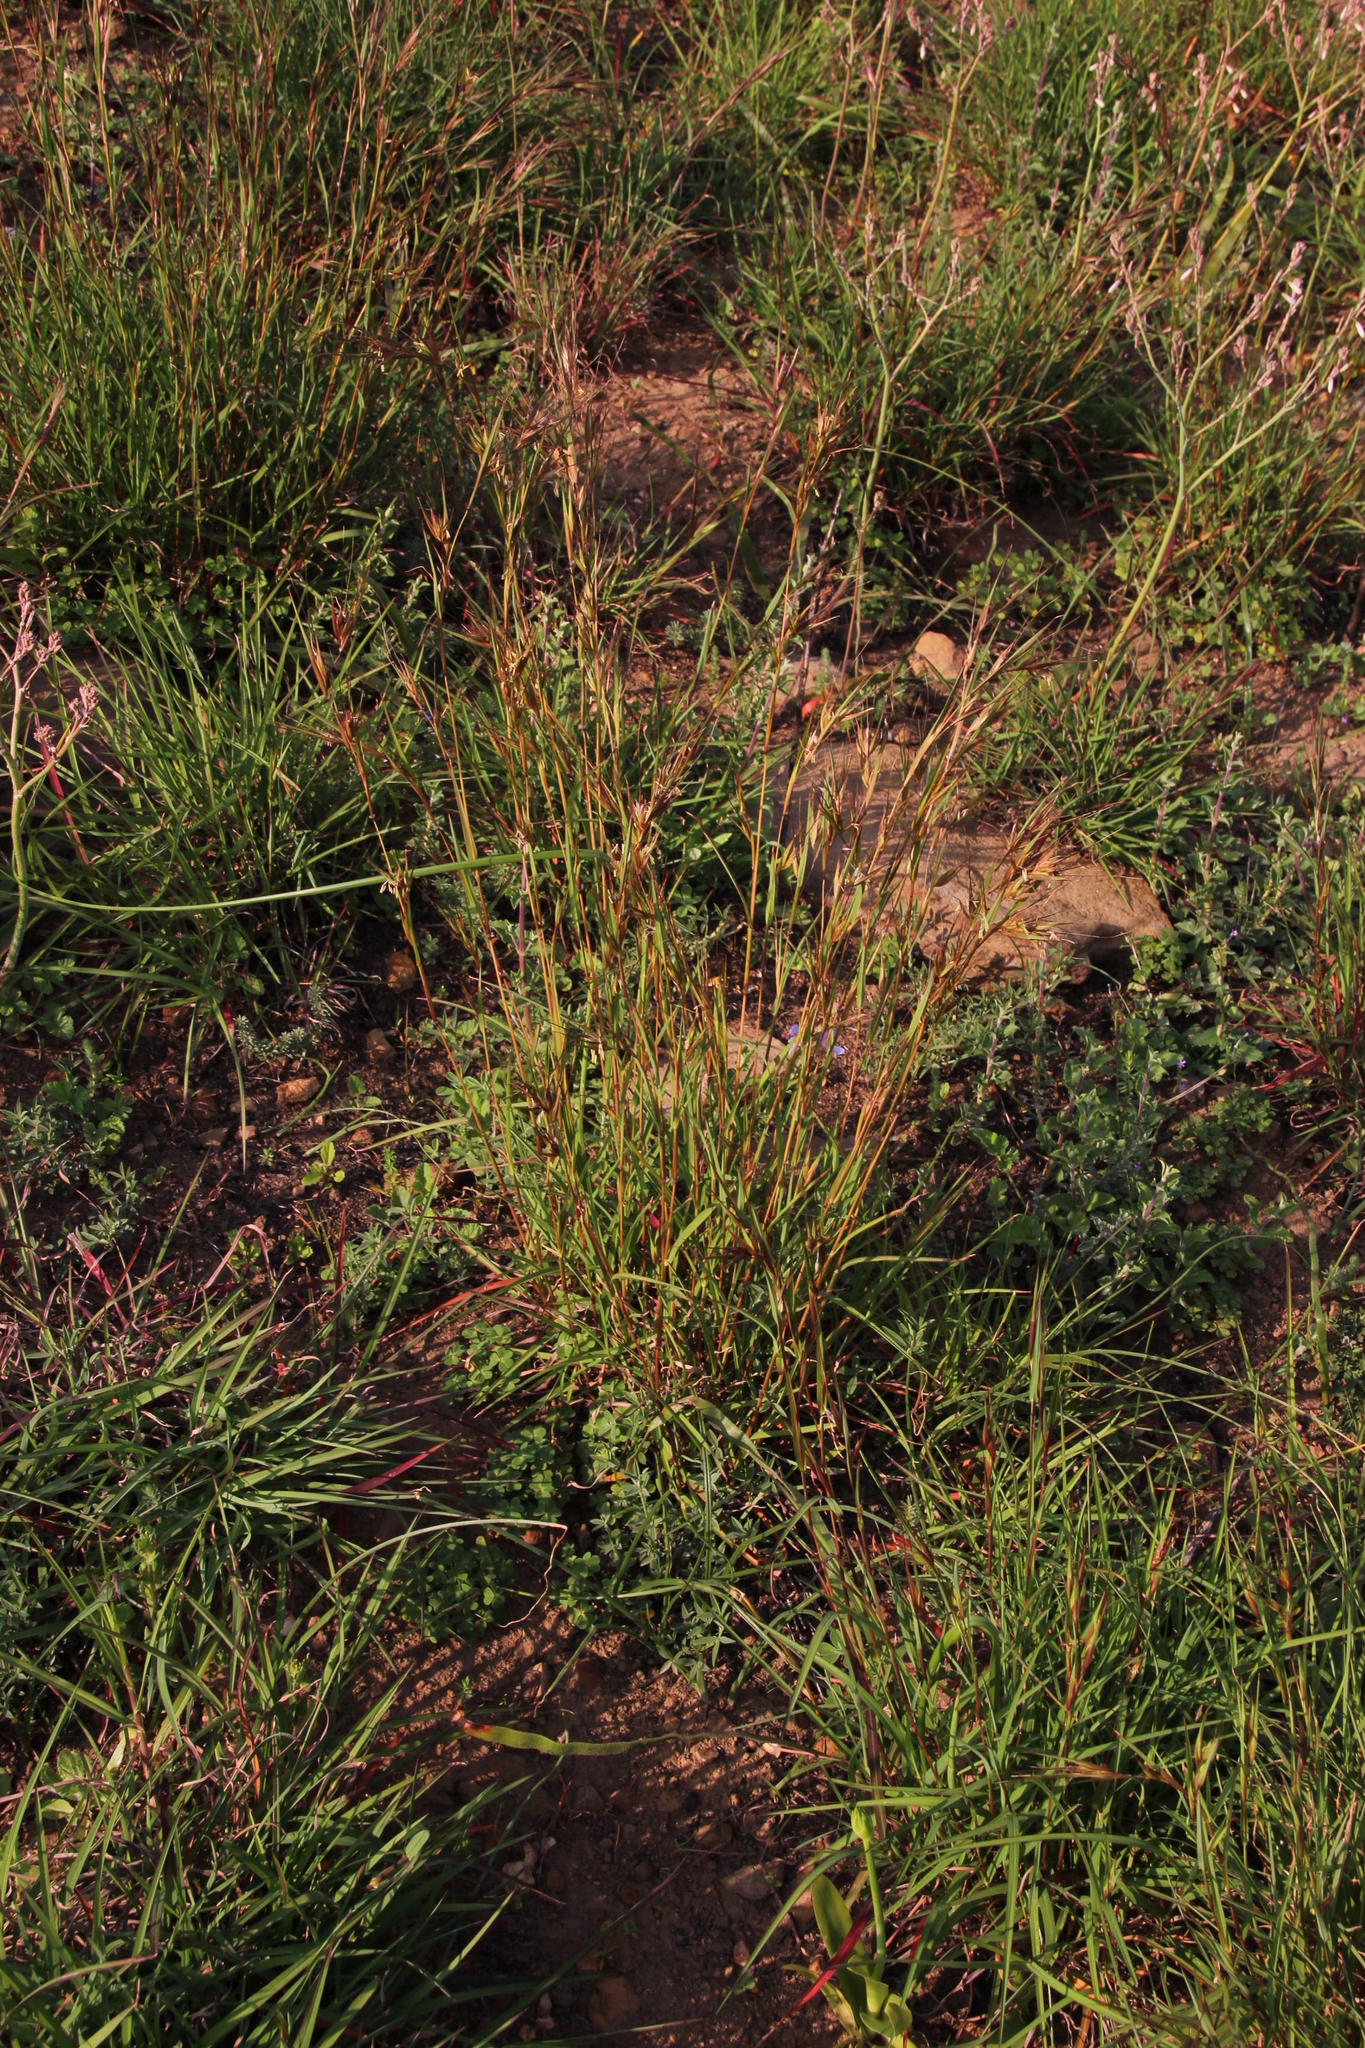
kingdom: Plantae
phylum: Tracheophyta
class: Liliopsida
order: Poales
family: Poaceae
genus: Themeda
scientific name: Themeda triandra
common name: Kangaroo grass
